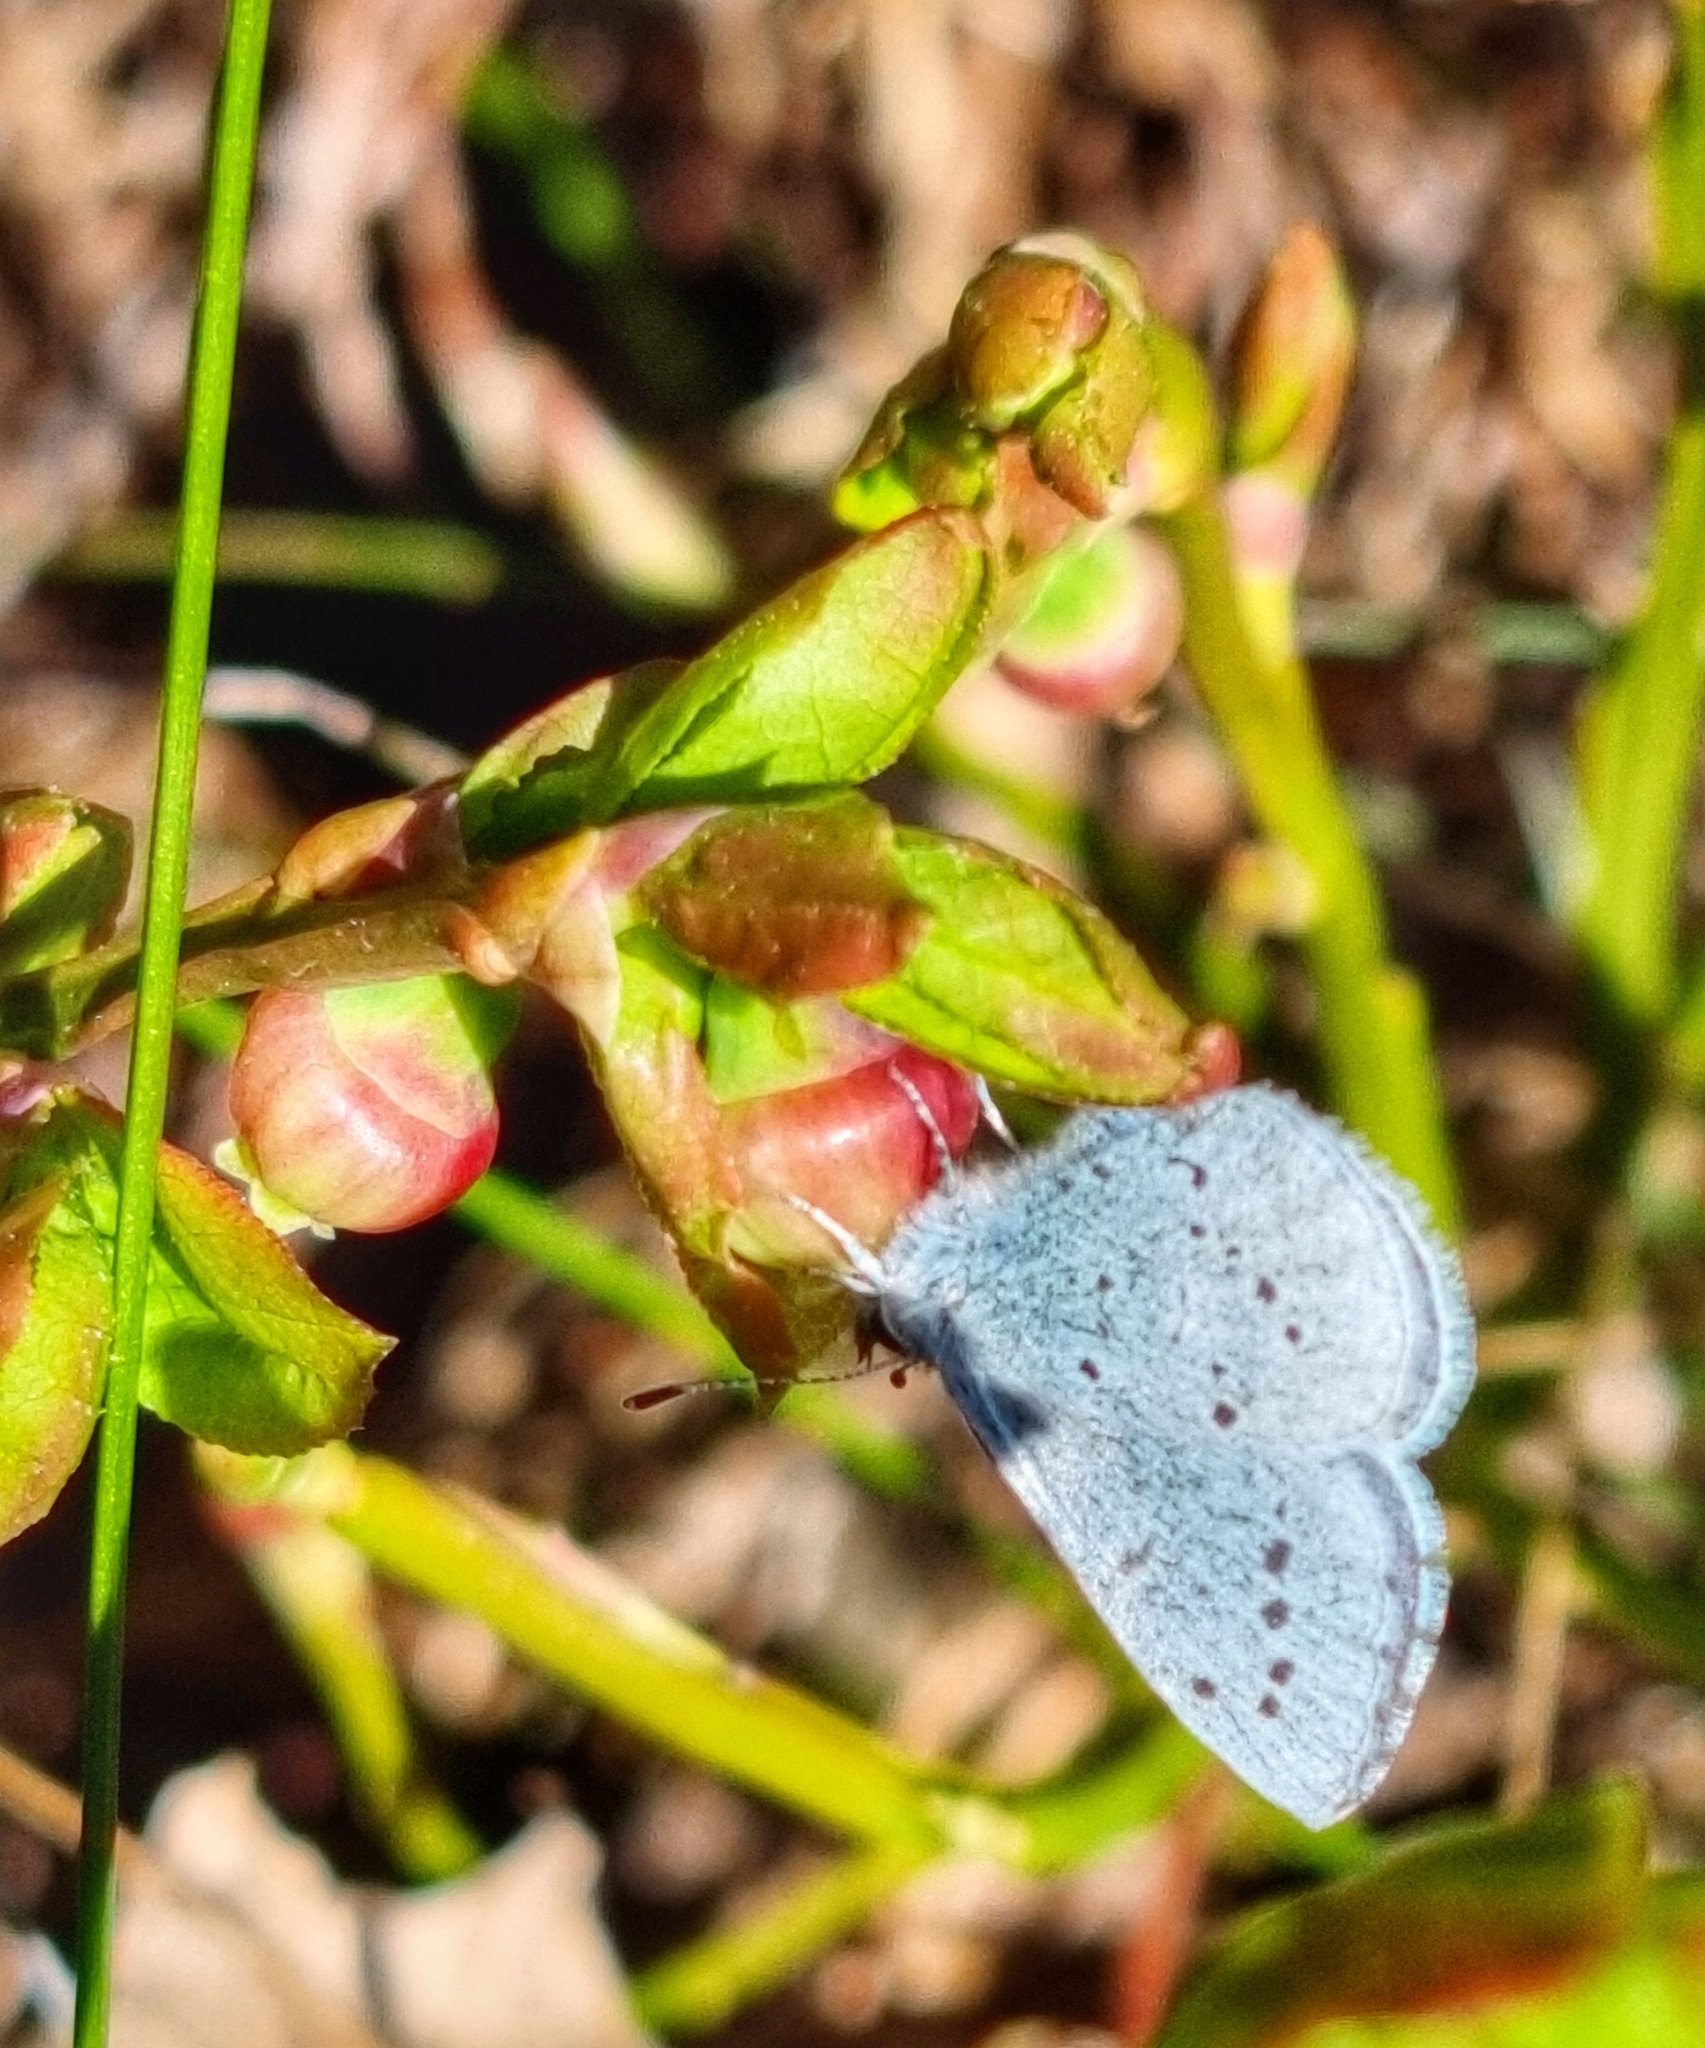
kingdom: Animalia
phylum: Arthropoda
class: Insecta
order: Lepidoptera
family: Lycaenidae
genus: Celastrina
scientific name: Celastrina argiolus
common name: Holly blue
